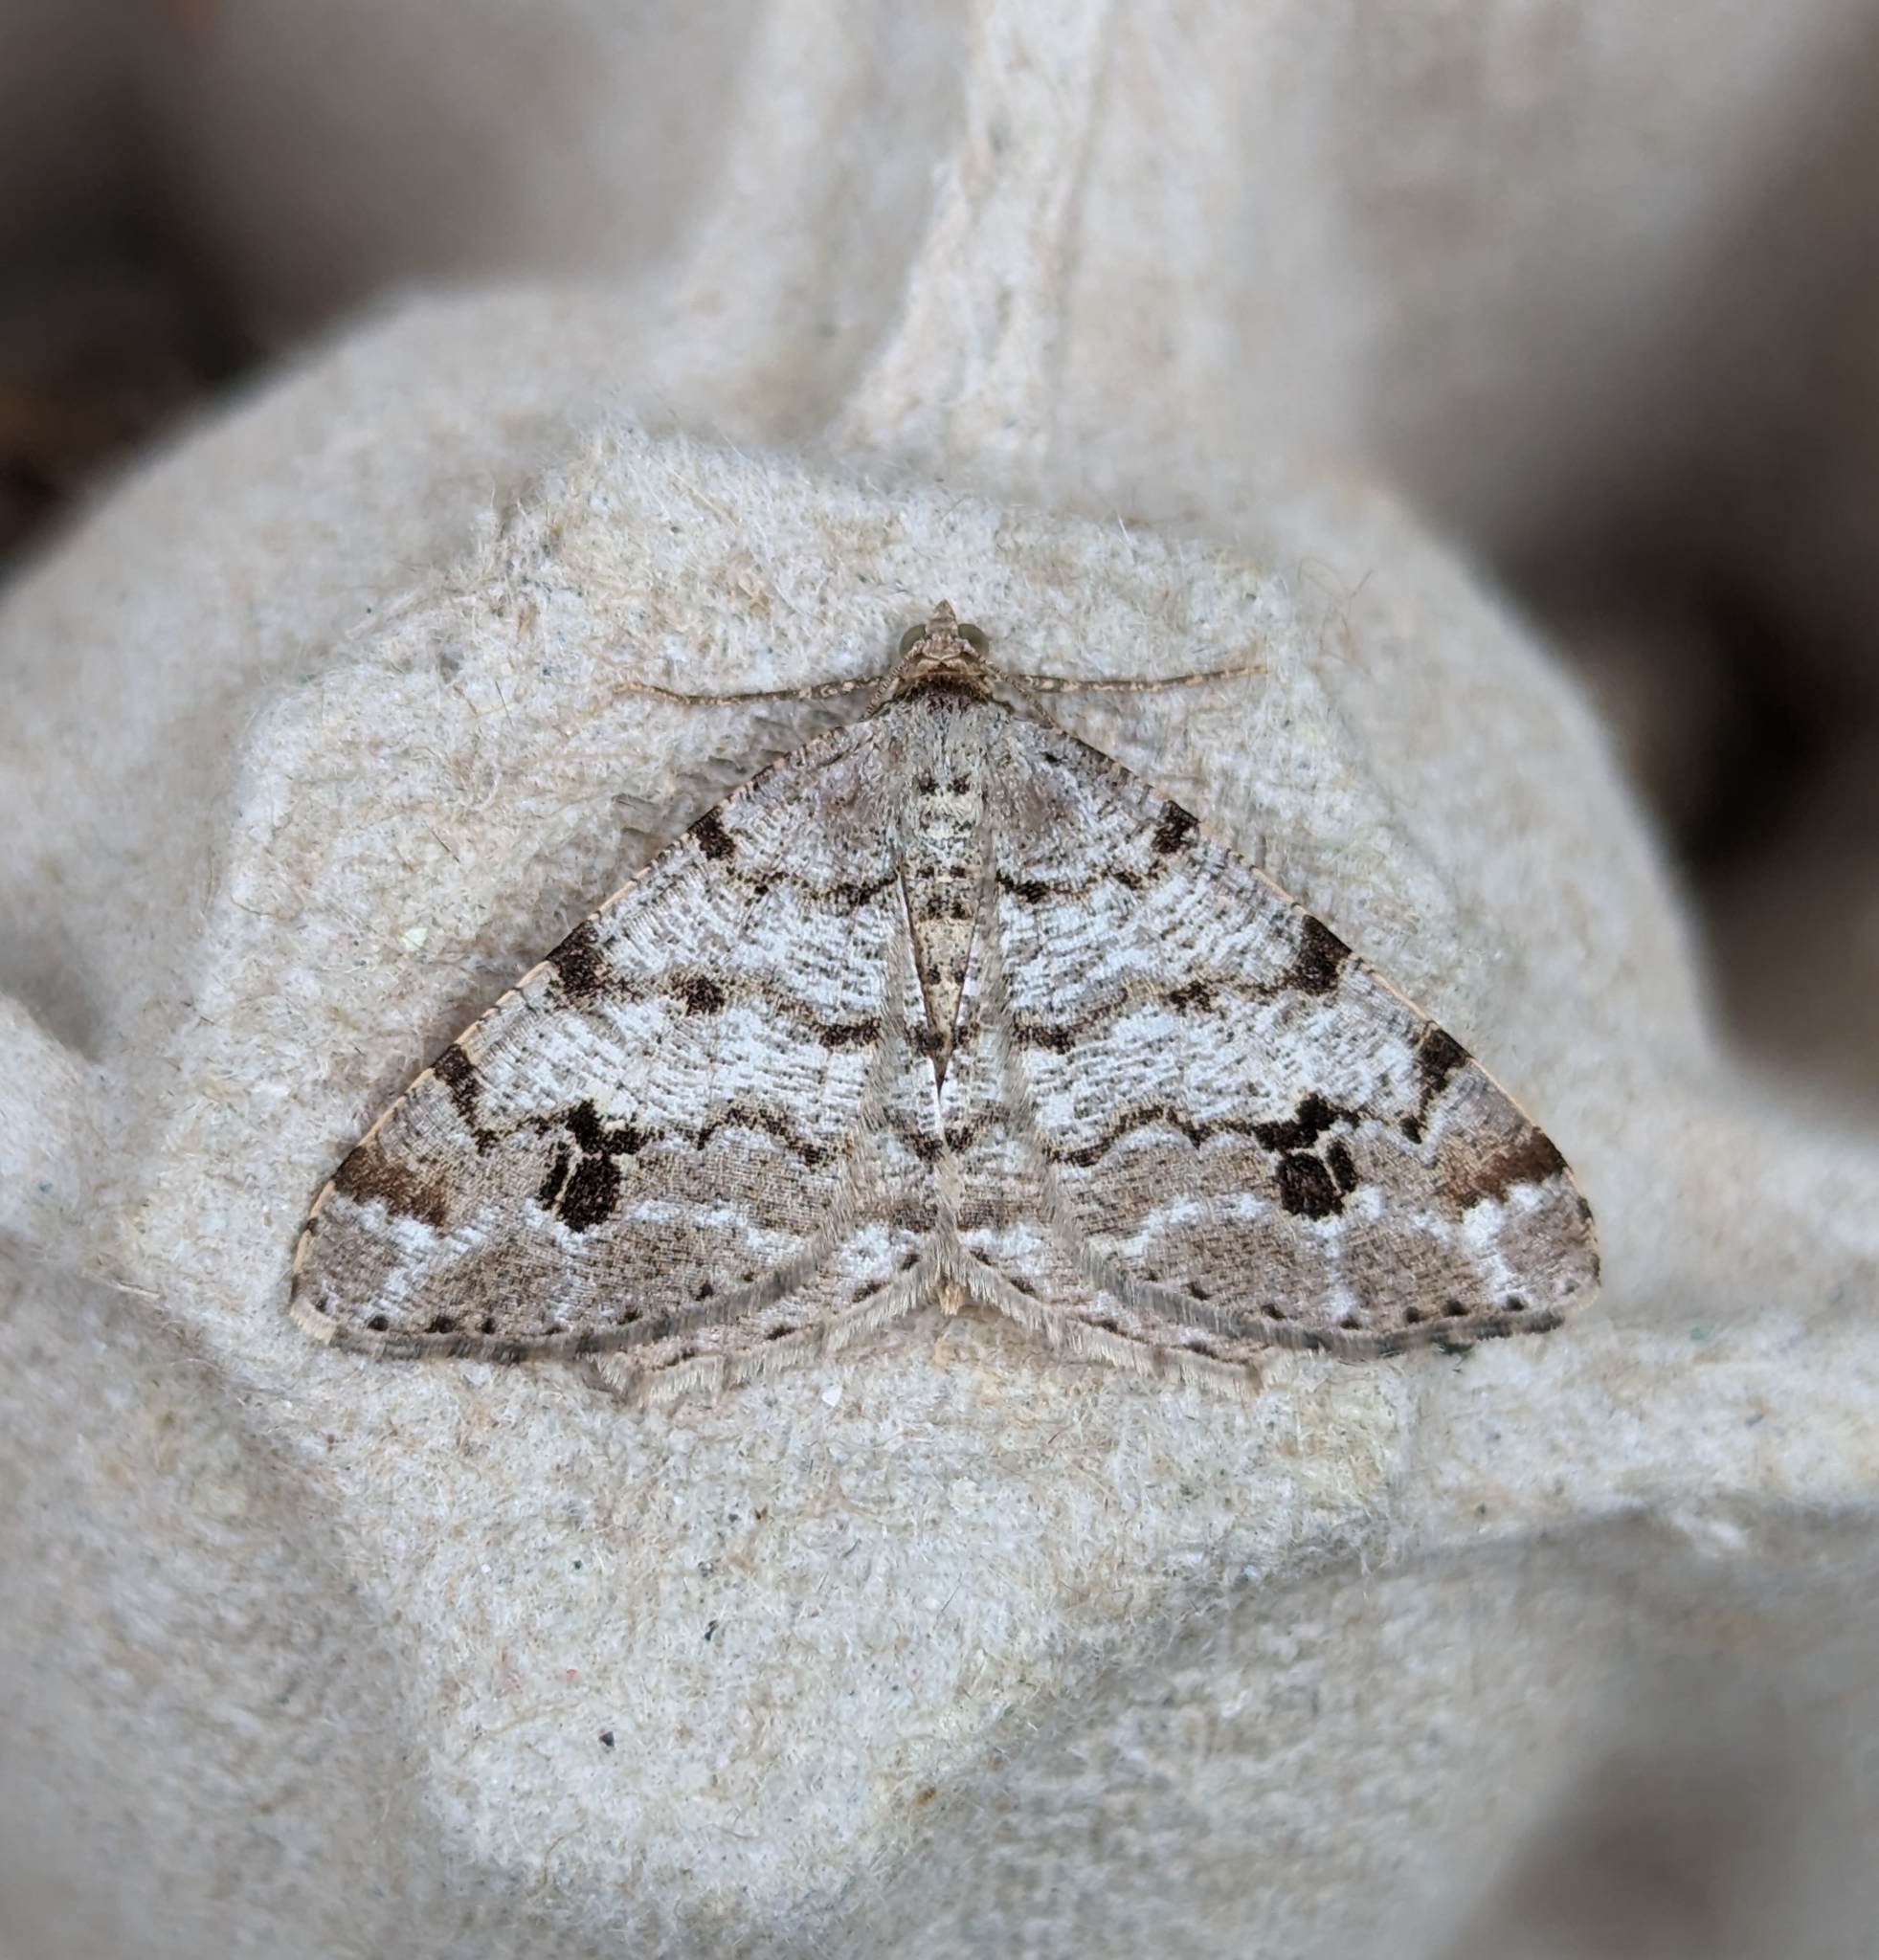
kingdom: Animalia
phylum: Arthropoda
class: Insecta
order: Lepidoptera
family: Geometridae
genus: Macaria
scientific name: Macaria signaria
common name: Dusky peacock
